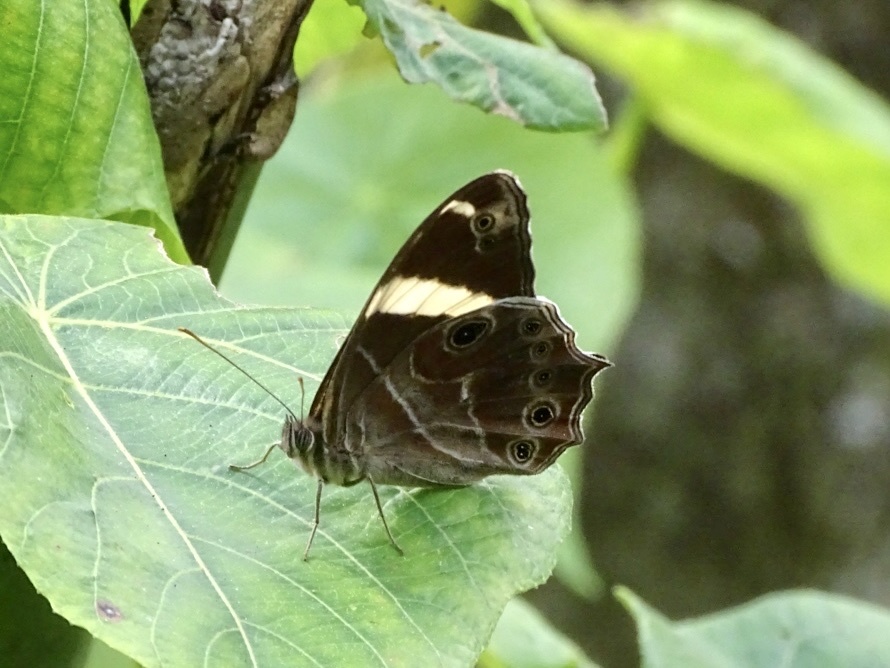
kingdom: Animalia
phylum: Arthropoda
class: Insecta
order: Lepidoptera
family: Nymphalidae
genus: Lethe
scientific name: Lethe confusa
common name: Banded treebrown
